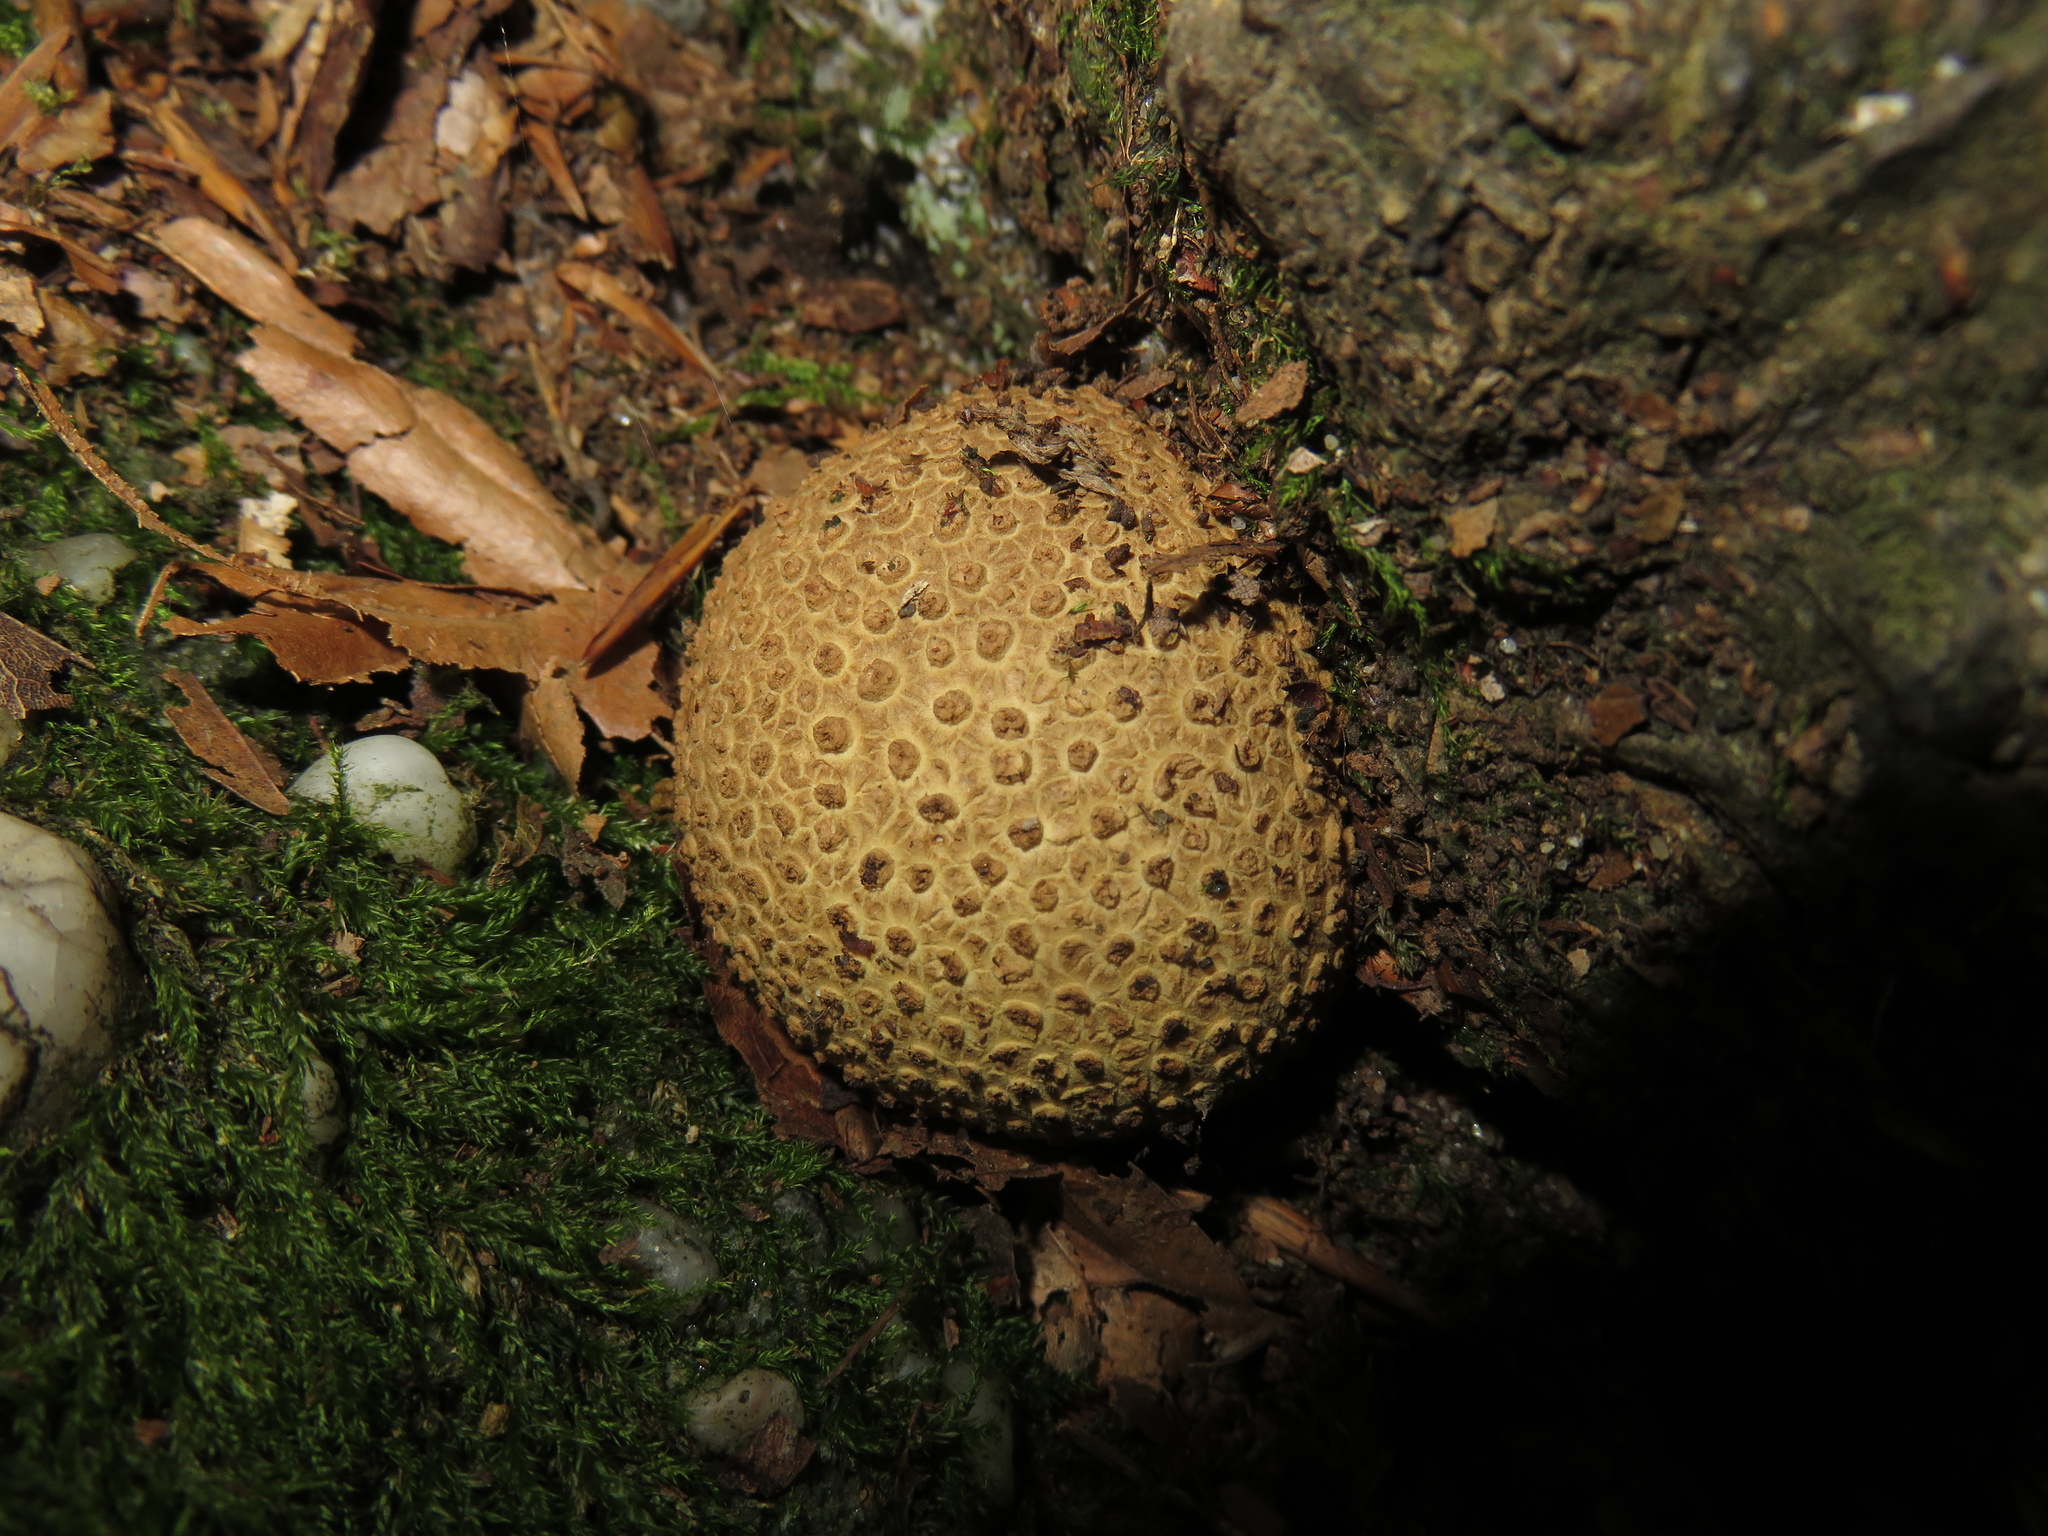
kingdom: Fungi
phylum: Basidiomycota
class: Agaricomycetes
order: Boletales
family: Sclerodermataceae
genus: Scleroderma
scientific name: Scleroderma citrinum
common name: Common earthball
